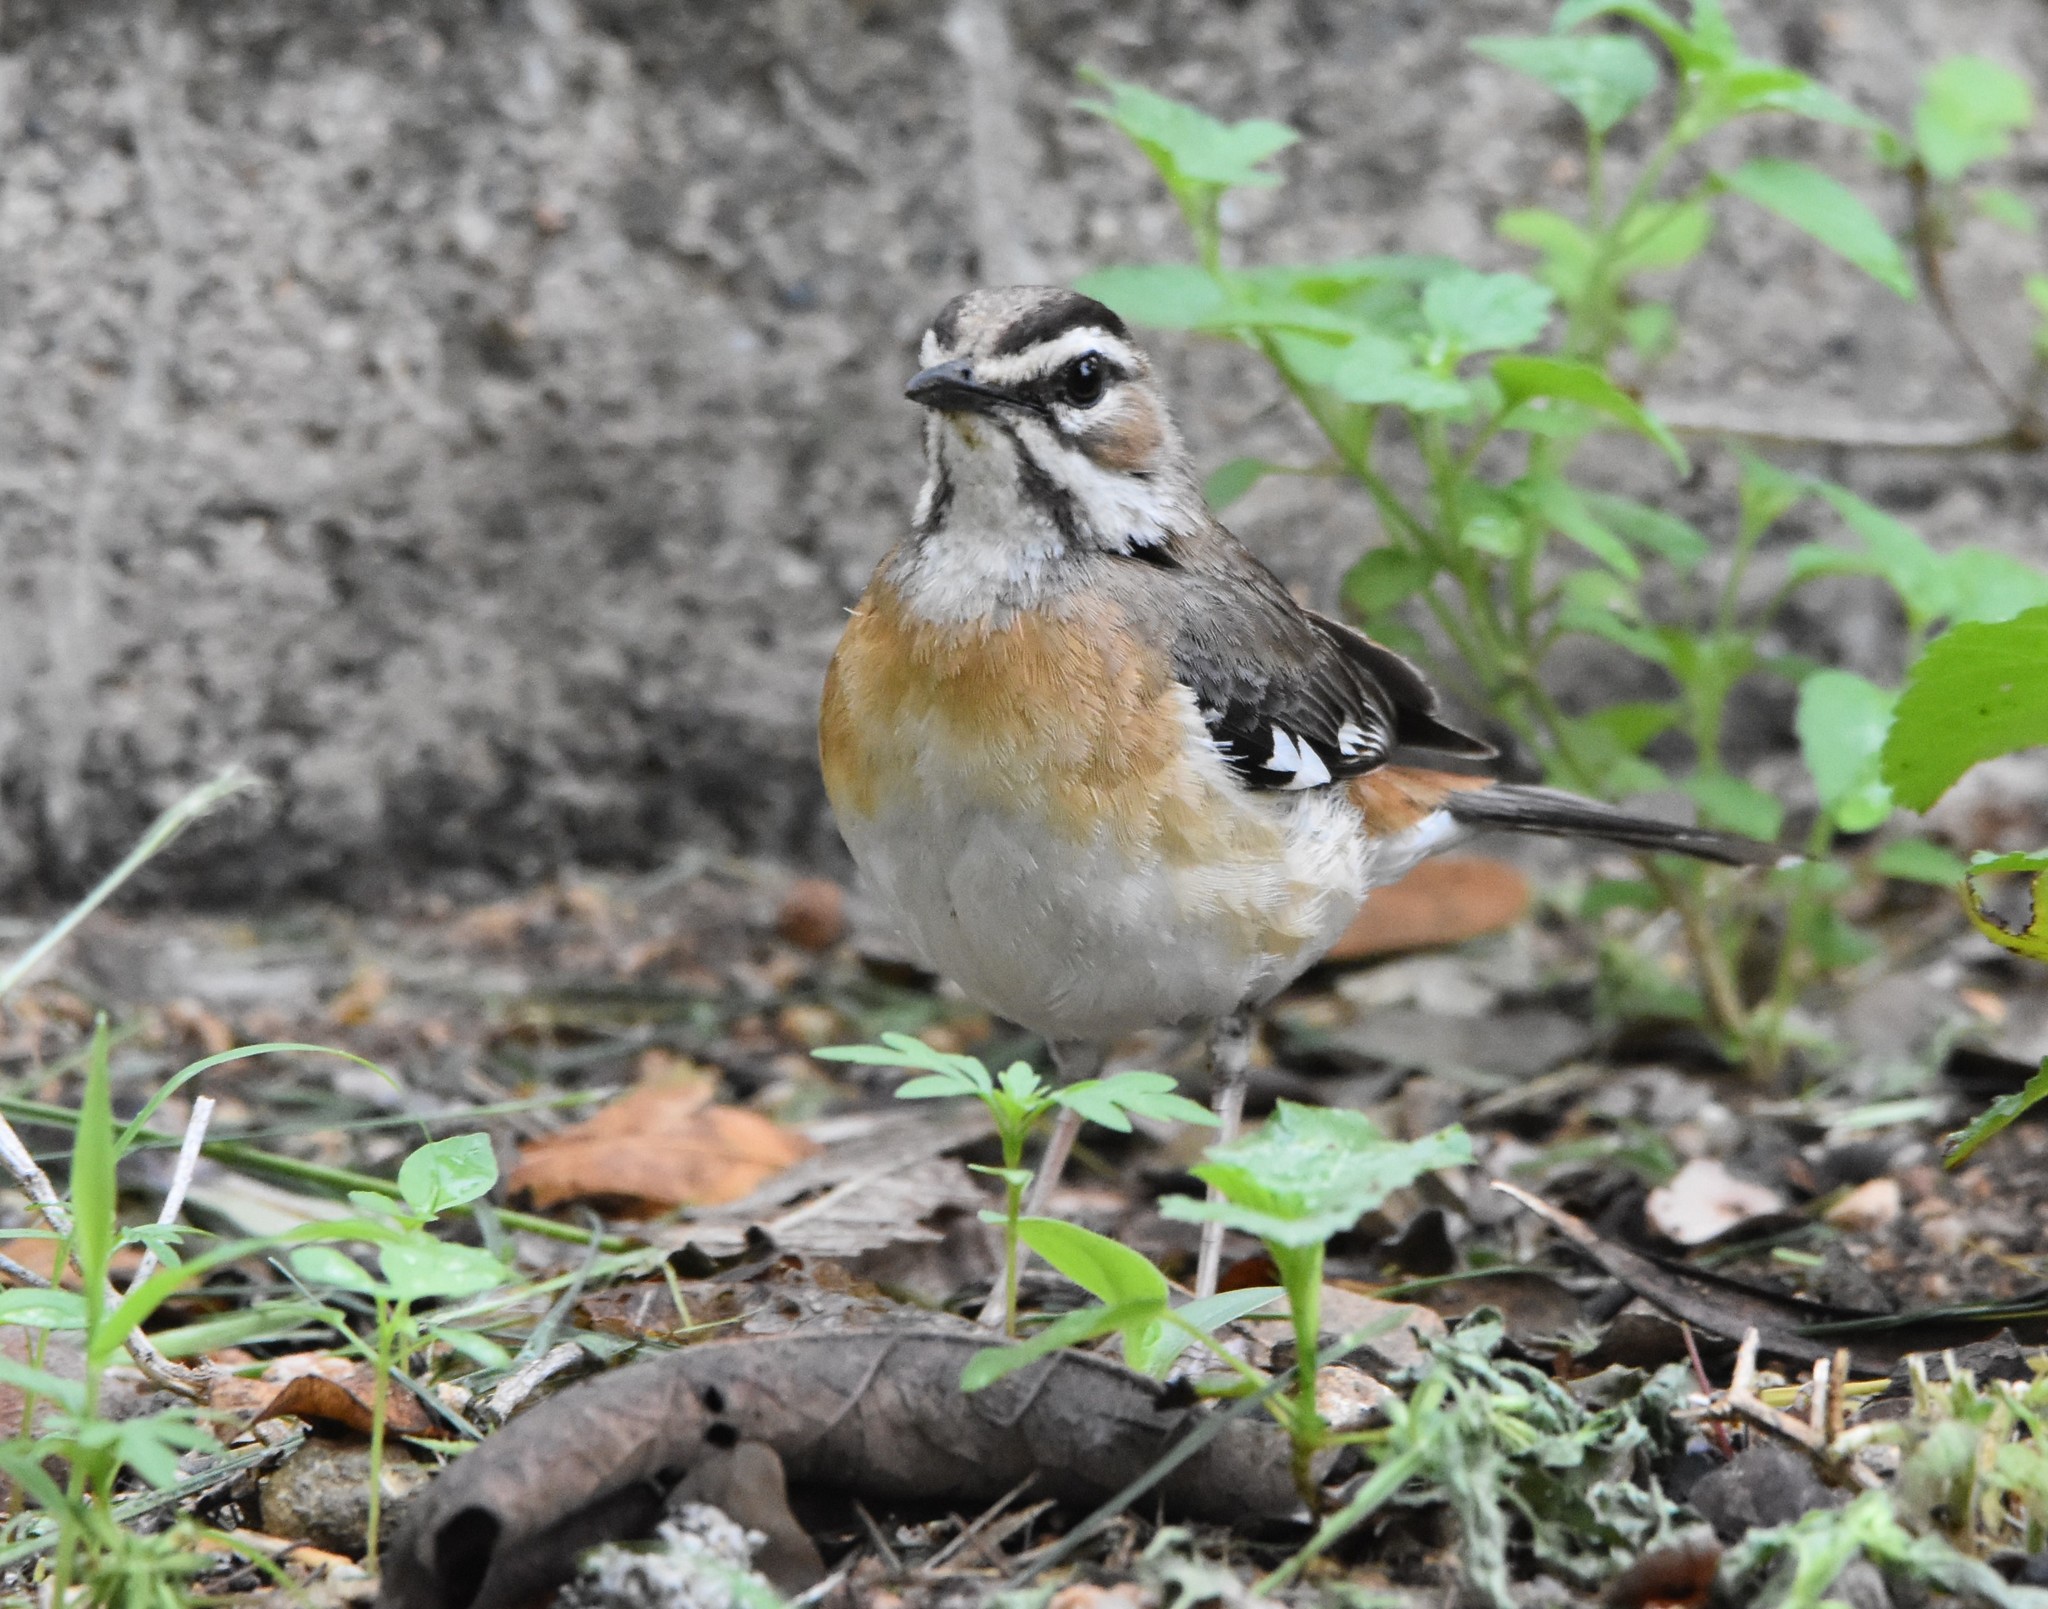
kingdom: Animalia
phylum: Chordata
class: Aves
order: Passeriformes
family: Muscicapidae
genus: Erythropygia
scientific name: Erythropygia quadrivirgata
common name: Bearded scrub robin
